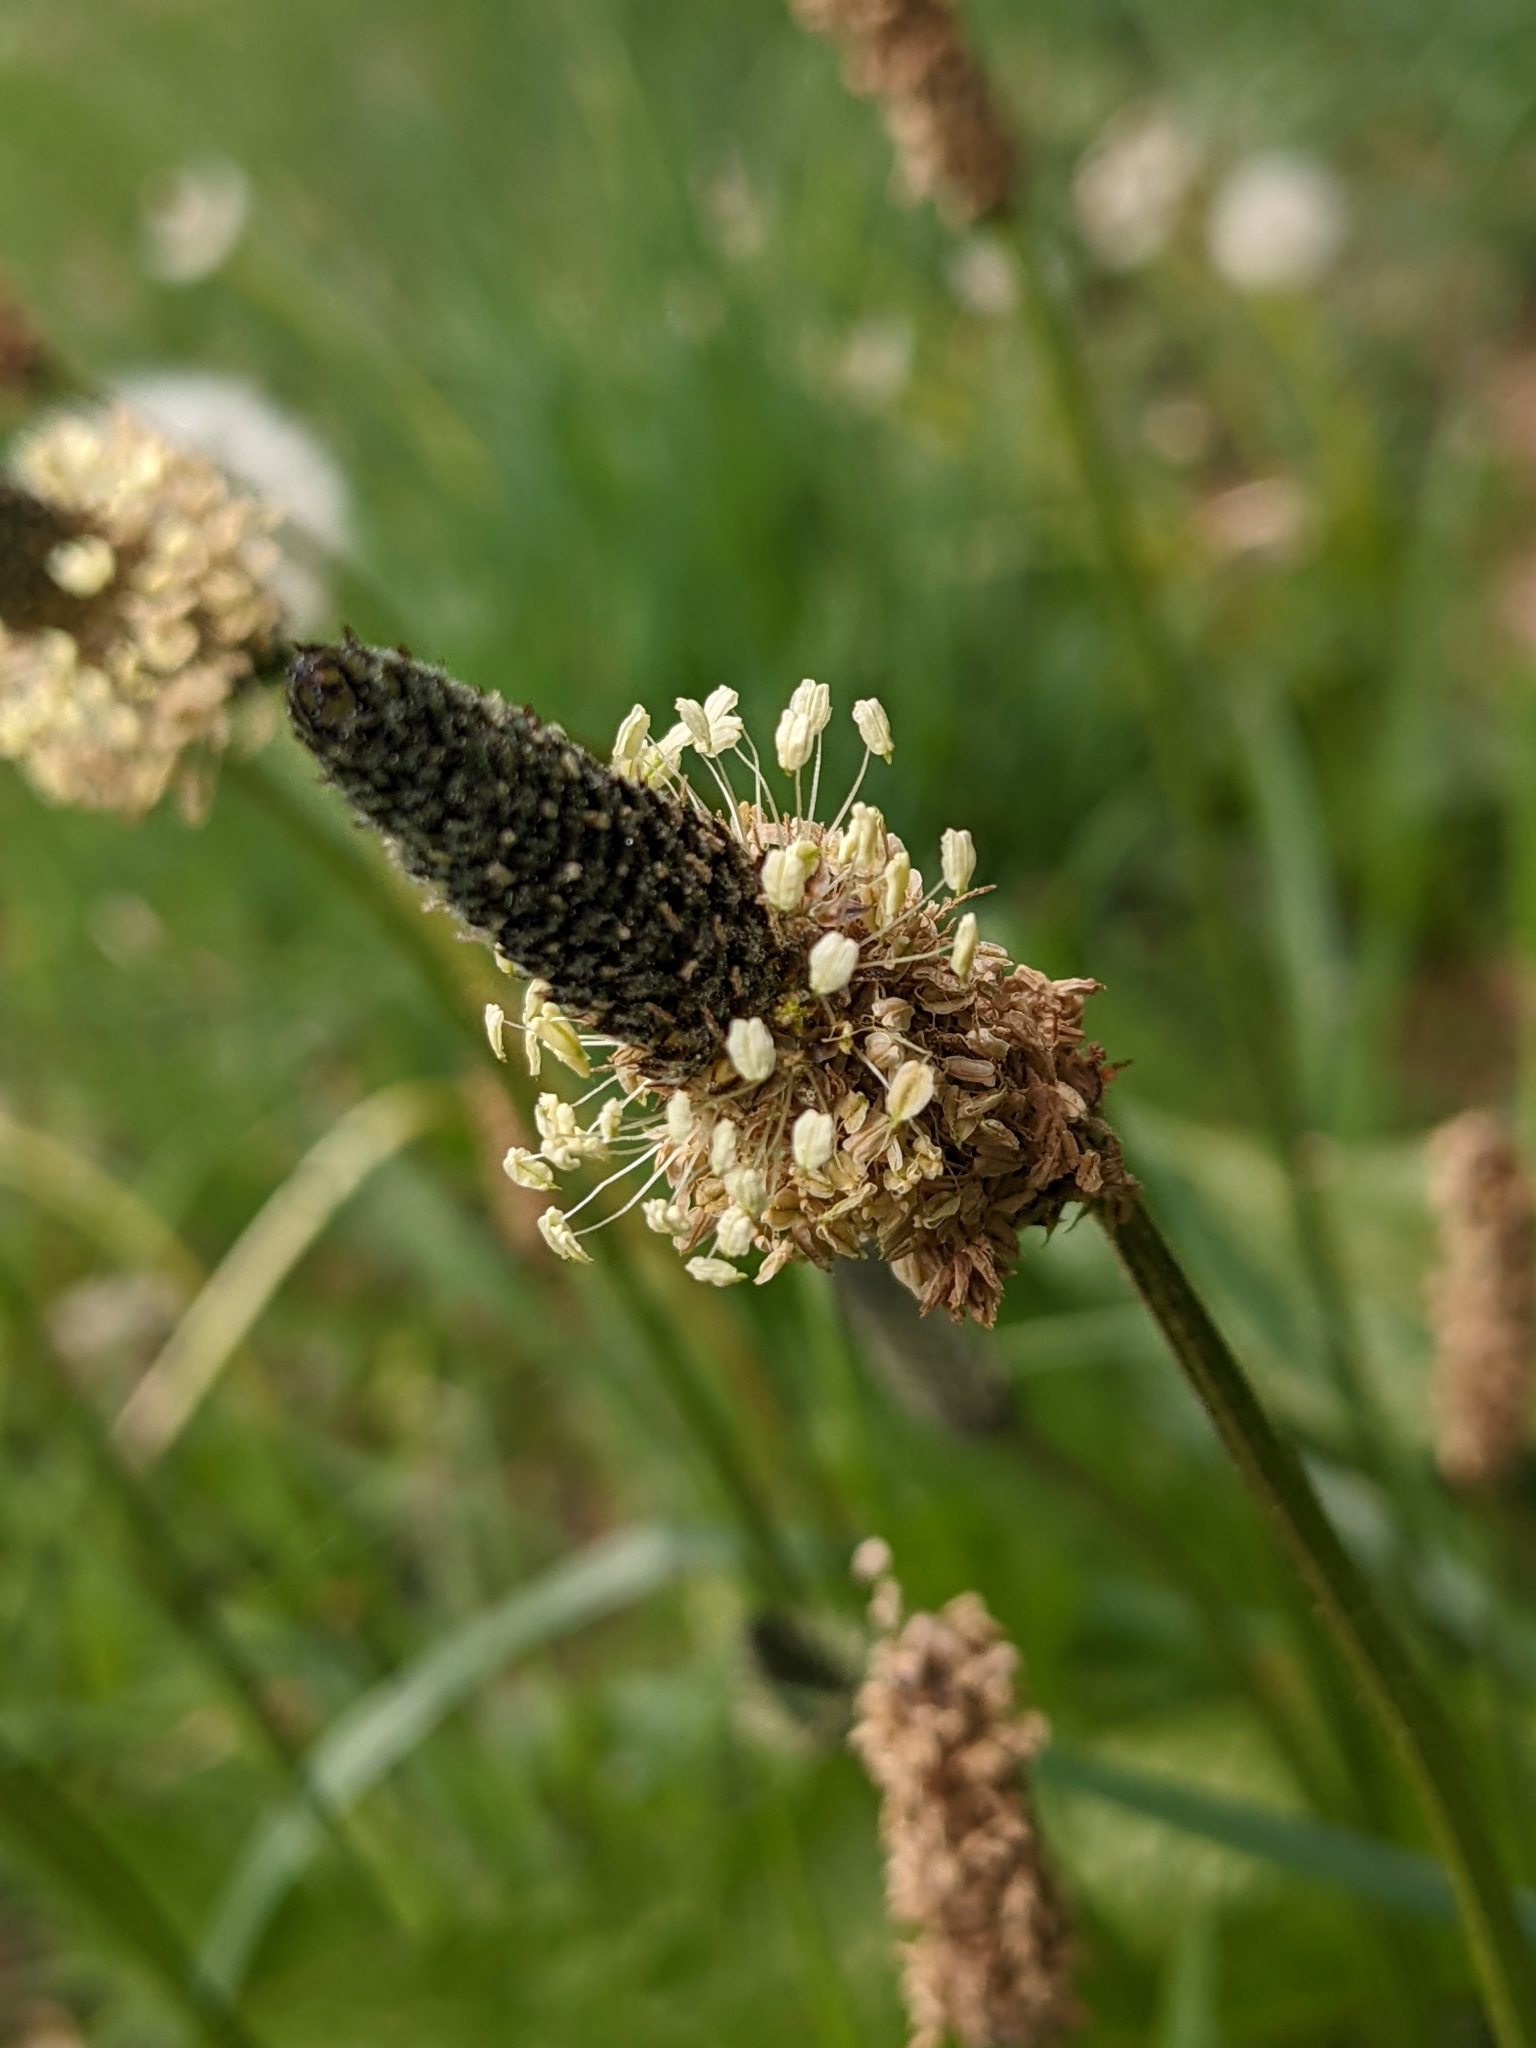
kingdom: Plantae
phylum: Tracheophyta
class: Magnoliopsida
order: Lamiales
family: Plantaginaceae
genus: Plantago
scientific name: Plantago lanceolata
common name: Ribwort plantain
